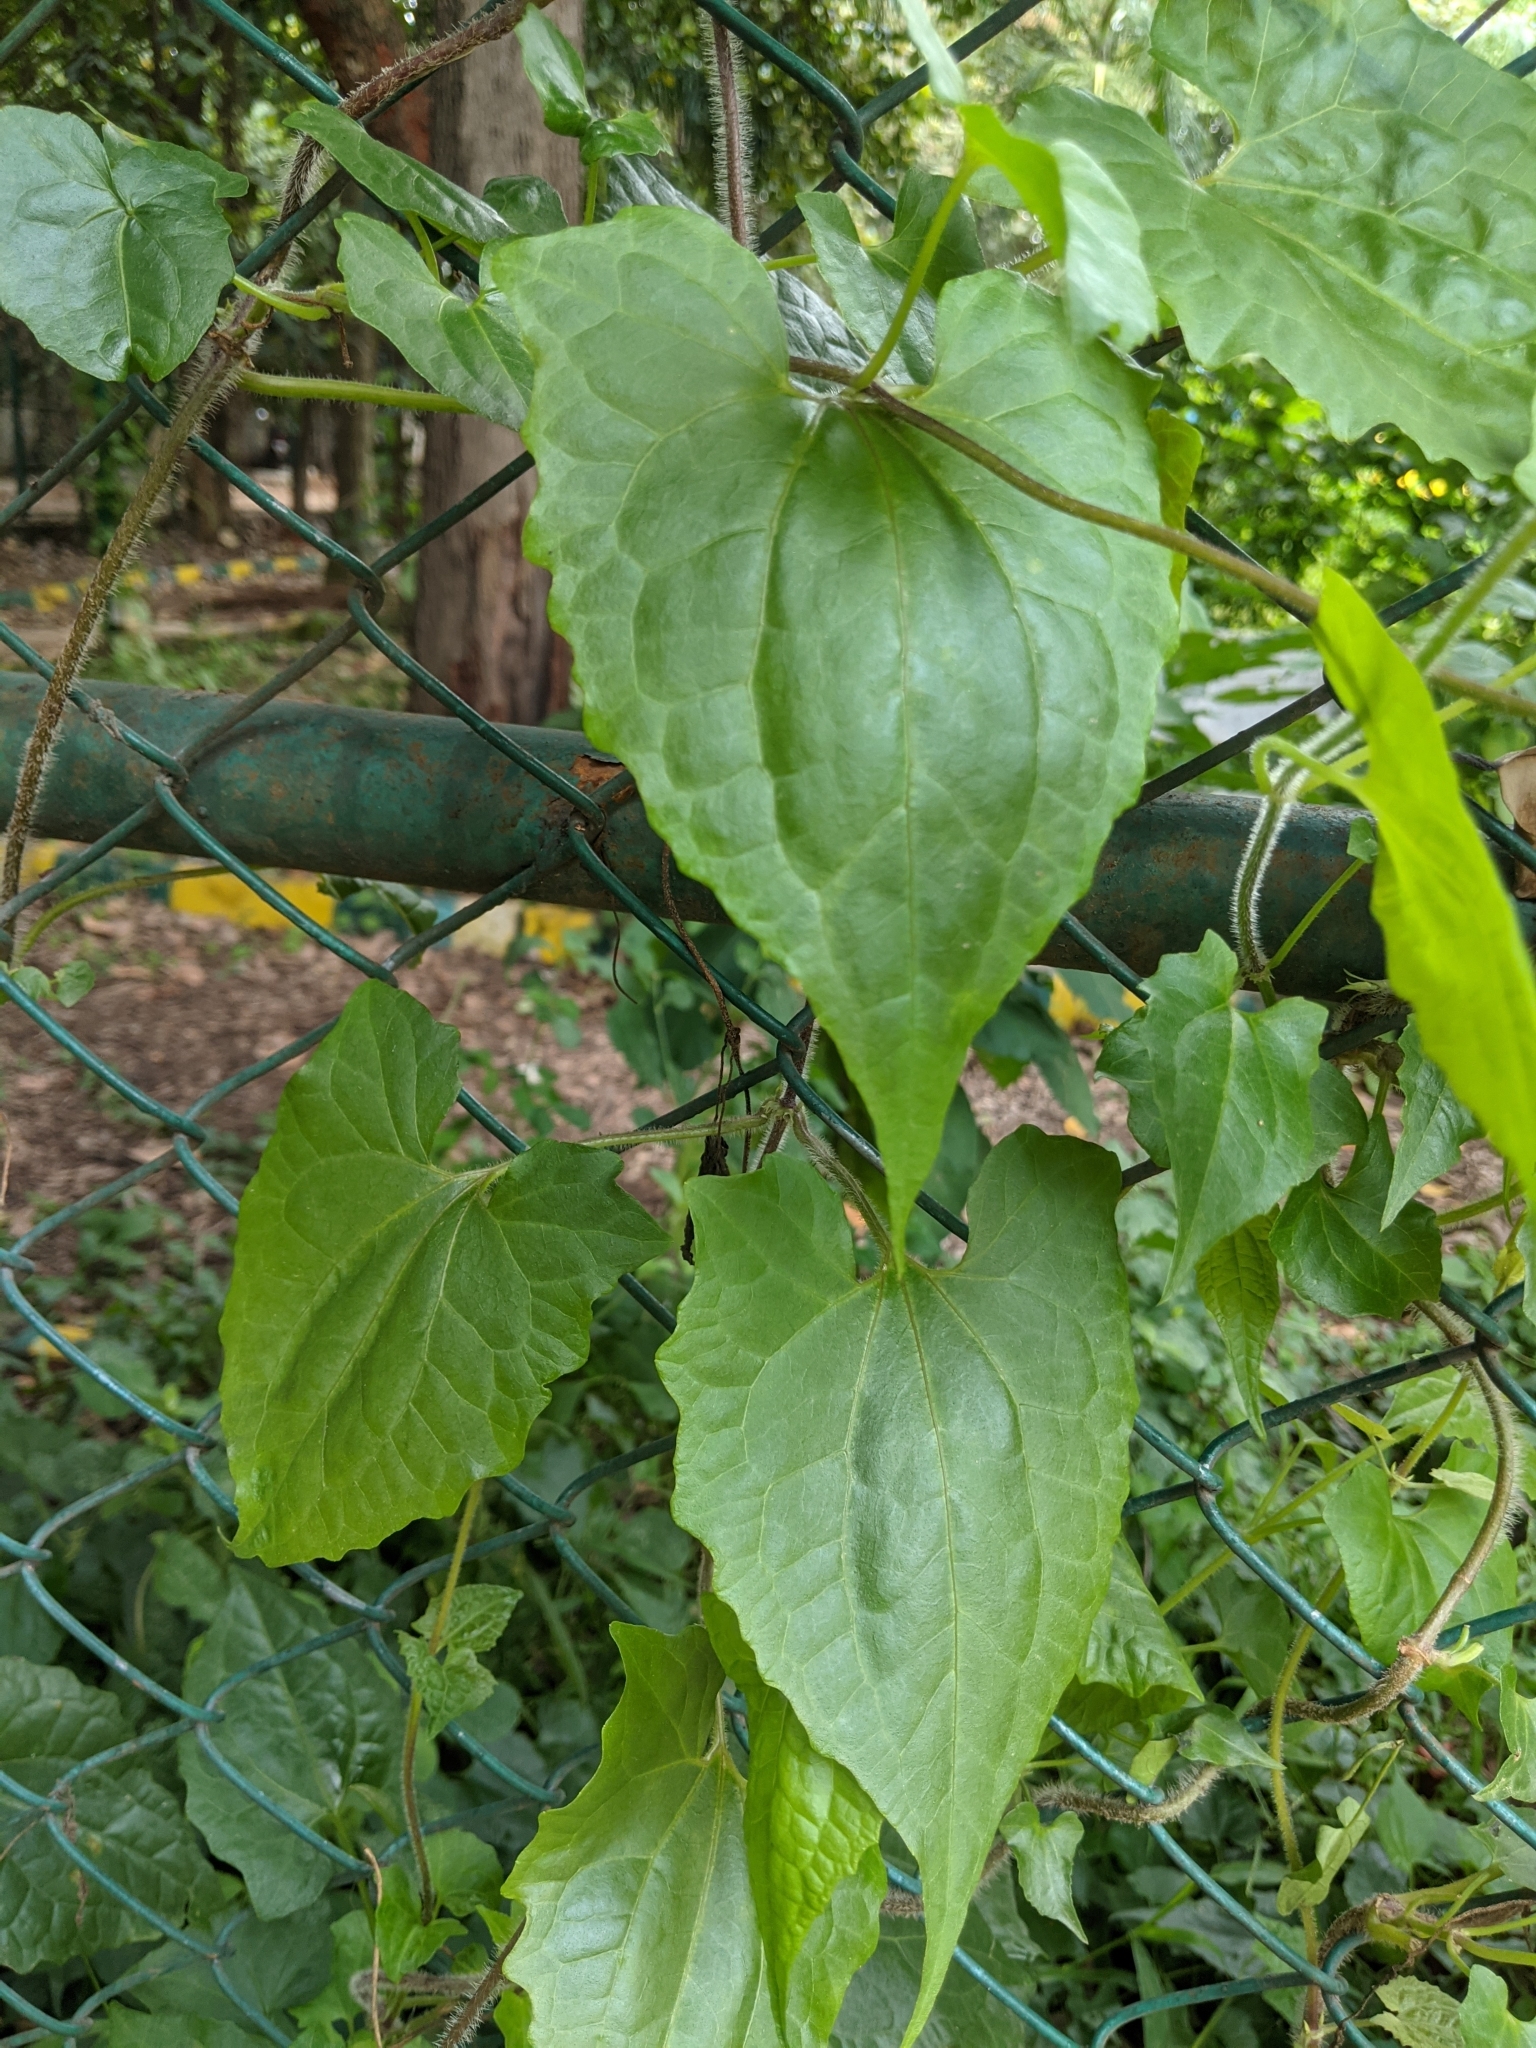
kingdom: Plantae
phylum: Tracheophyta
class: Magnoliopsida
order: Asterales
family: Asteraceae
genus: Mikania
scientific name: Mikania micrantha
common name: Mile-a-minute
